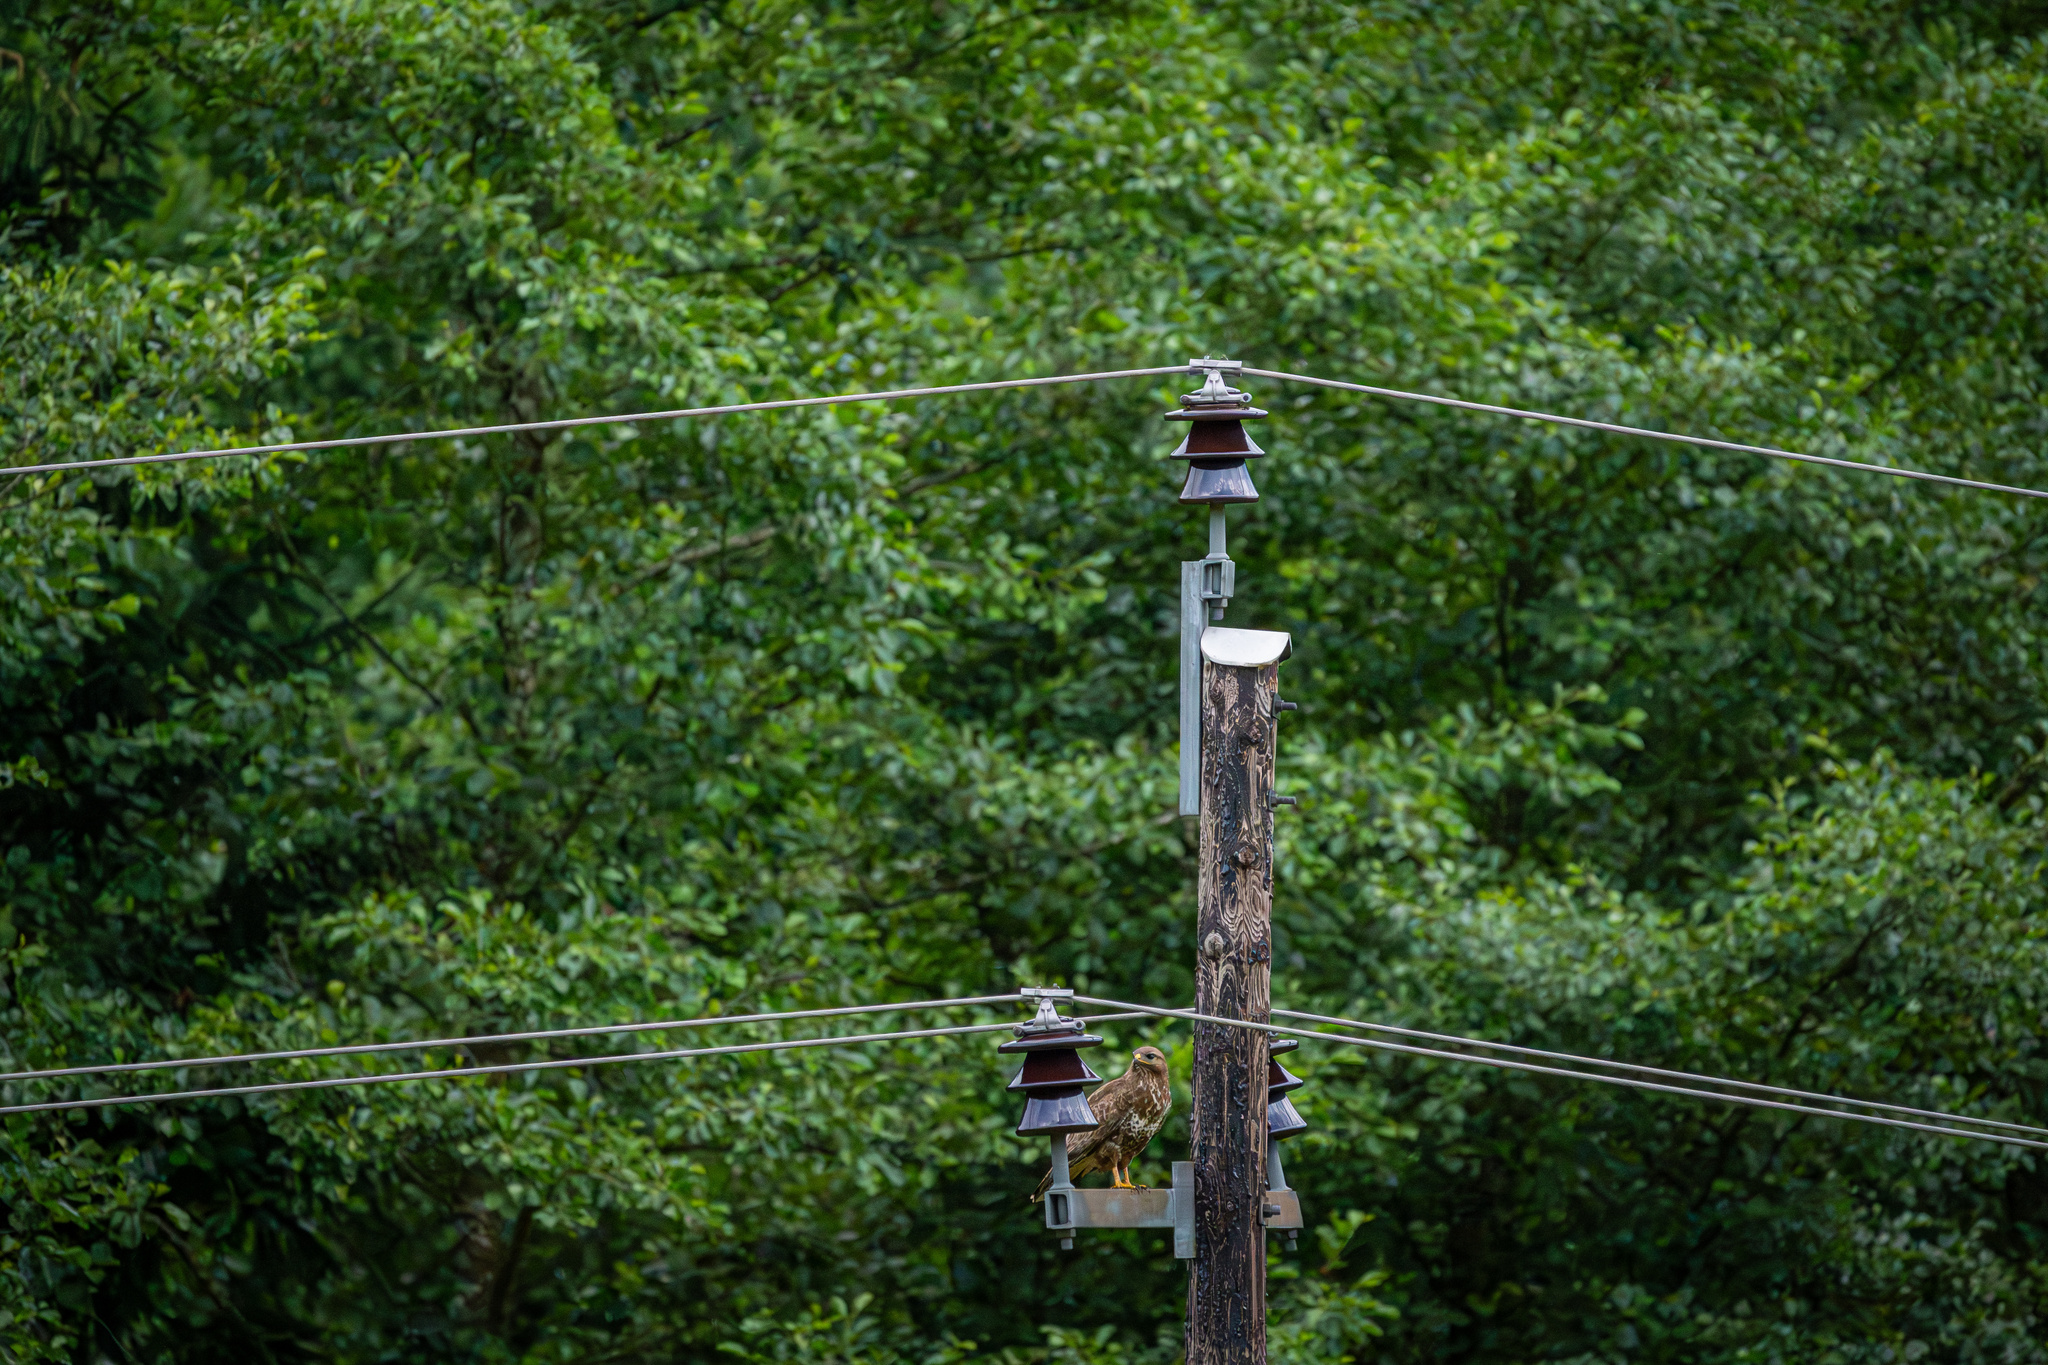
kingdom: Animalia
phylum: Chordata
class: Aves
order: Accipitriformes
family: Accipitridae
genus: Buteo
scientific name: Buteo buteo
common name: Common buzzard
